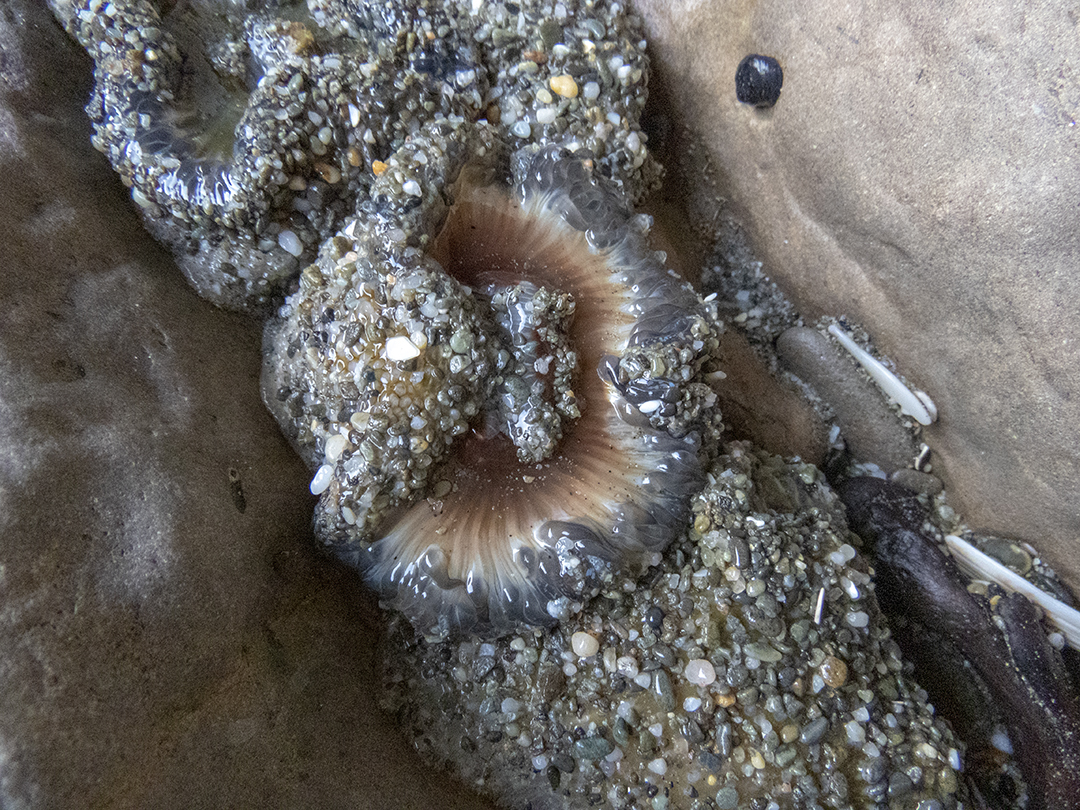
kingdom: Animalia
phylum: Cnidaria
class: Anthozoa
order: Actiniaria
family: Actiniidae
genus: Oulactis
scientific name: Oulactis magna
